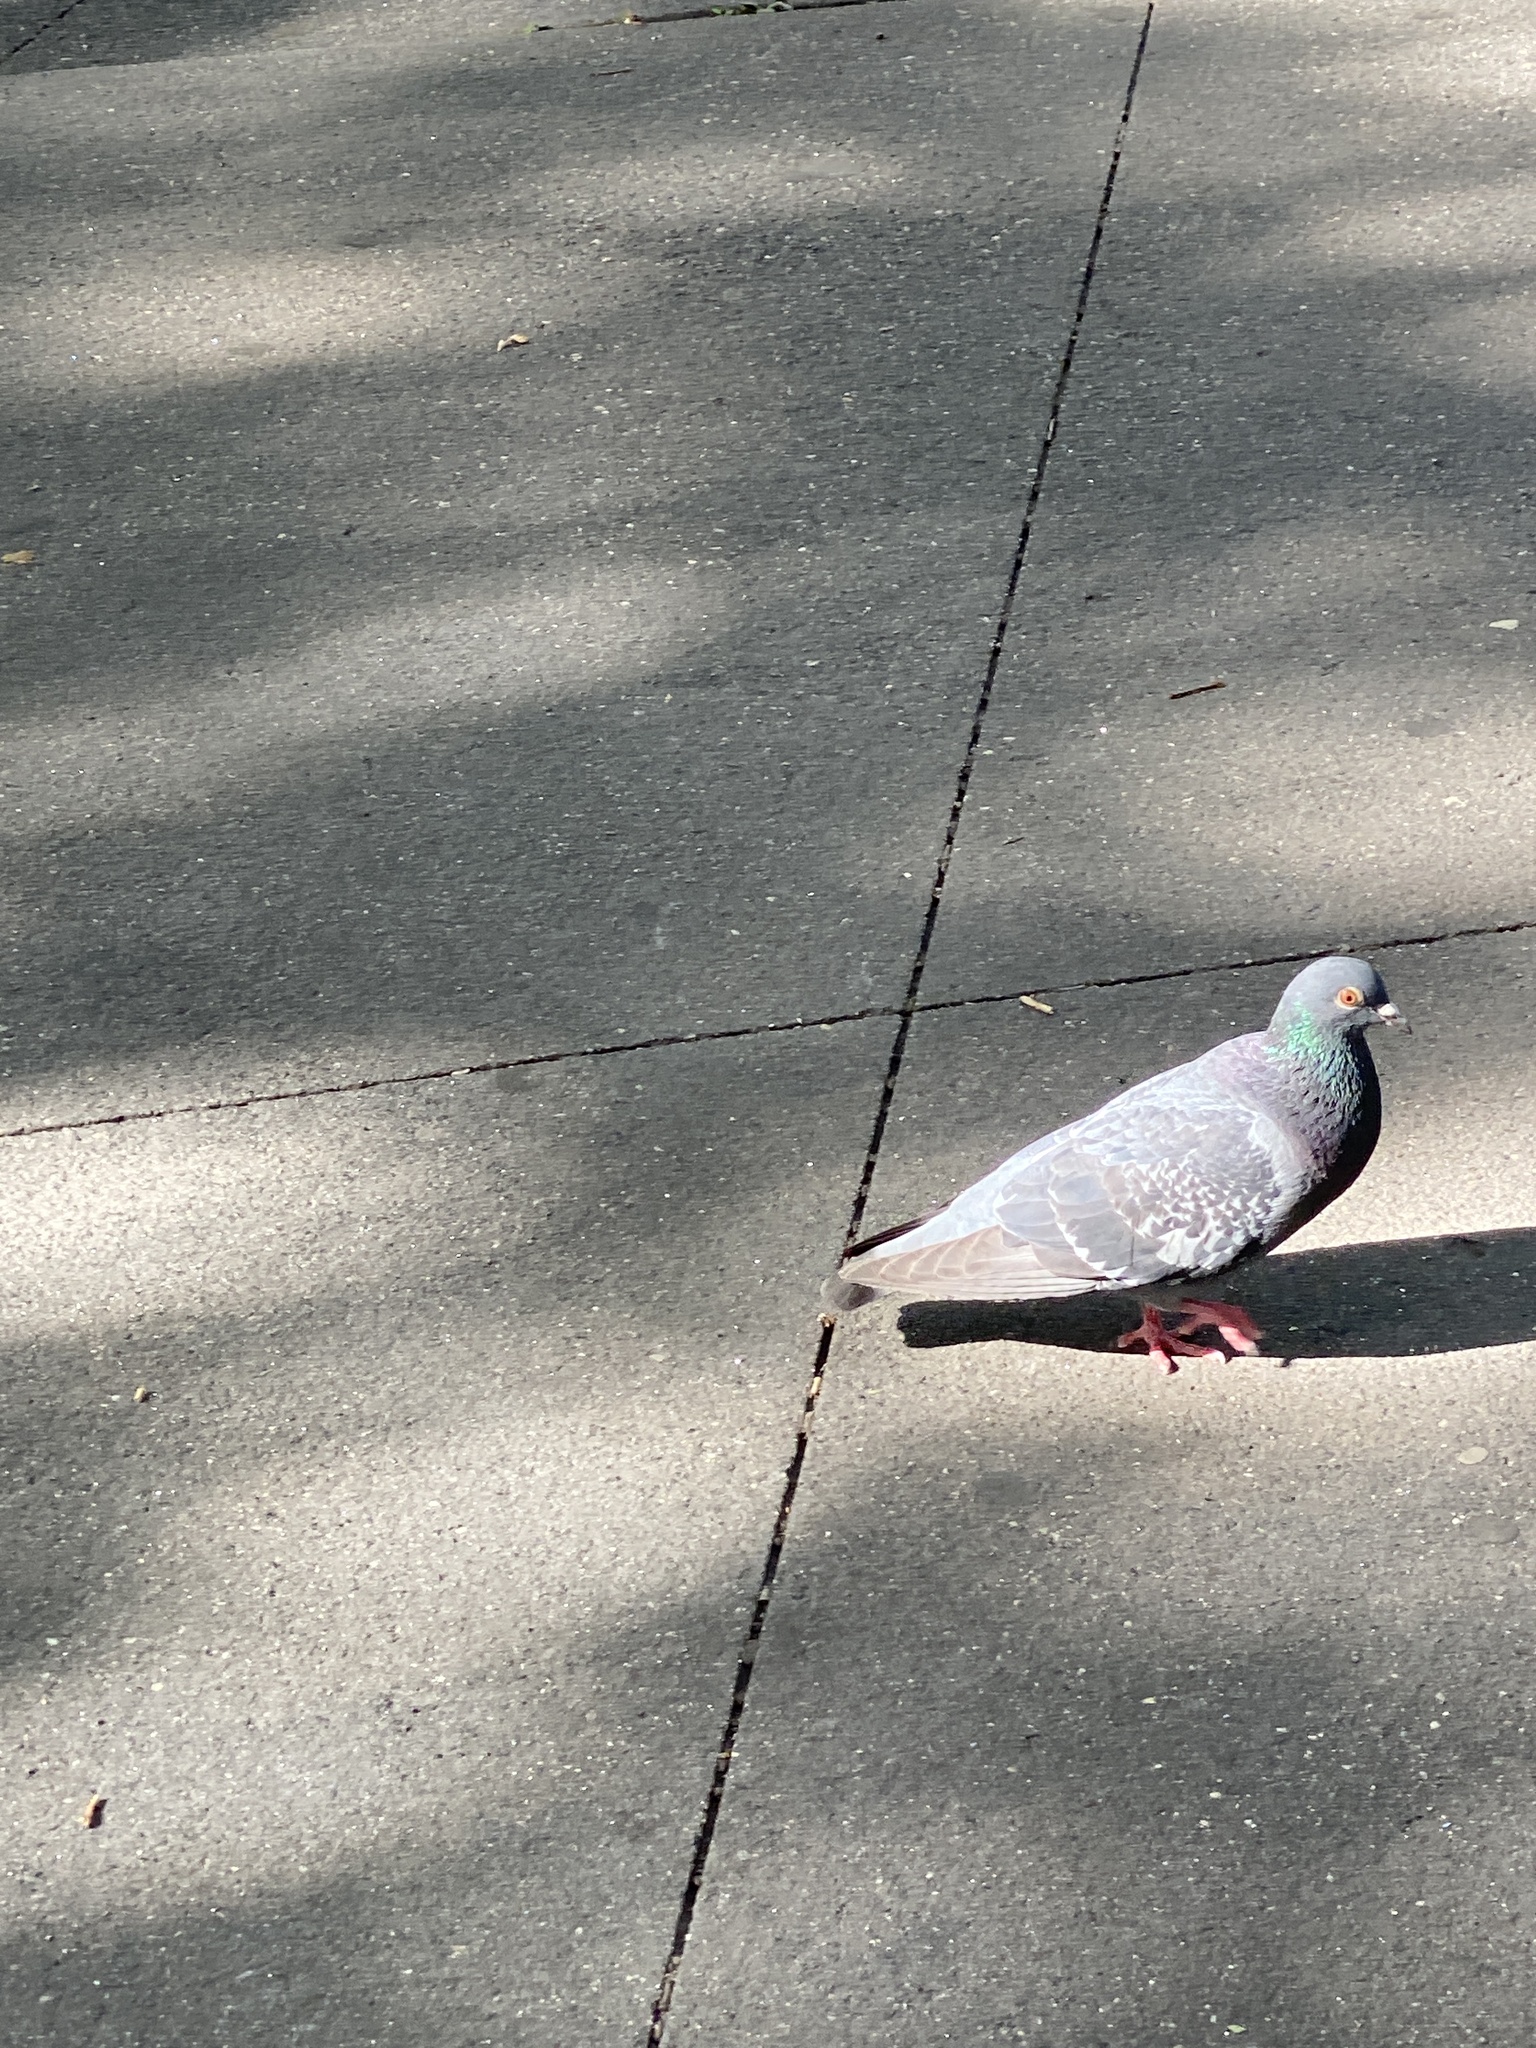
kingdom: Animalia
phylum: Chordata
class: Aves
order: Columbiformes
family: Columbidae
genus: Columba
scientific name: Columba livia
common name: Rock pigeon
